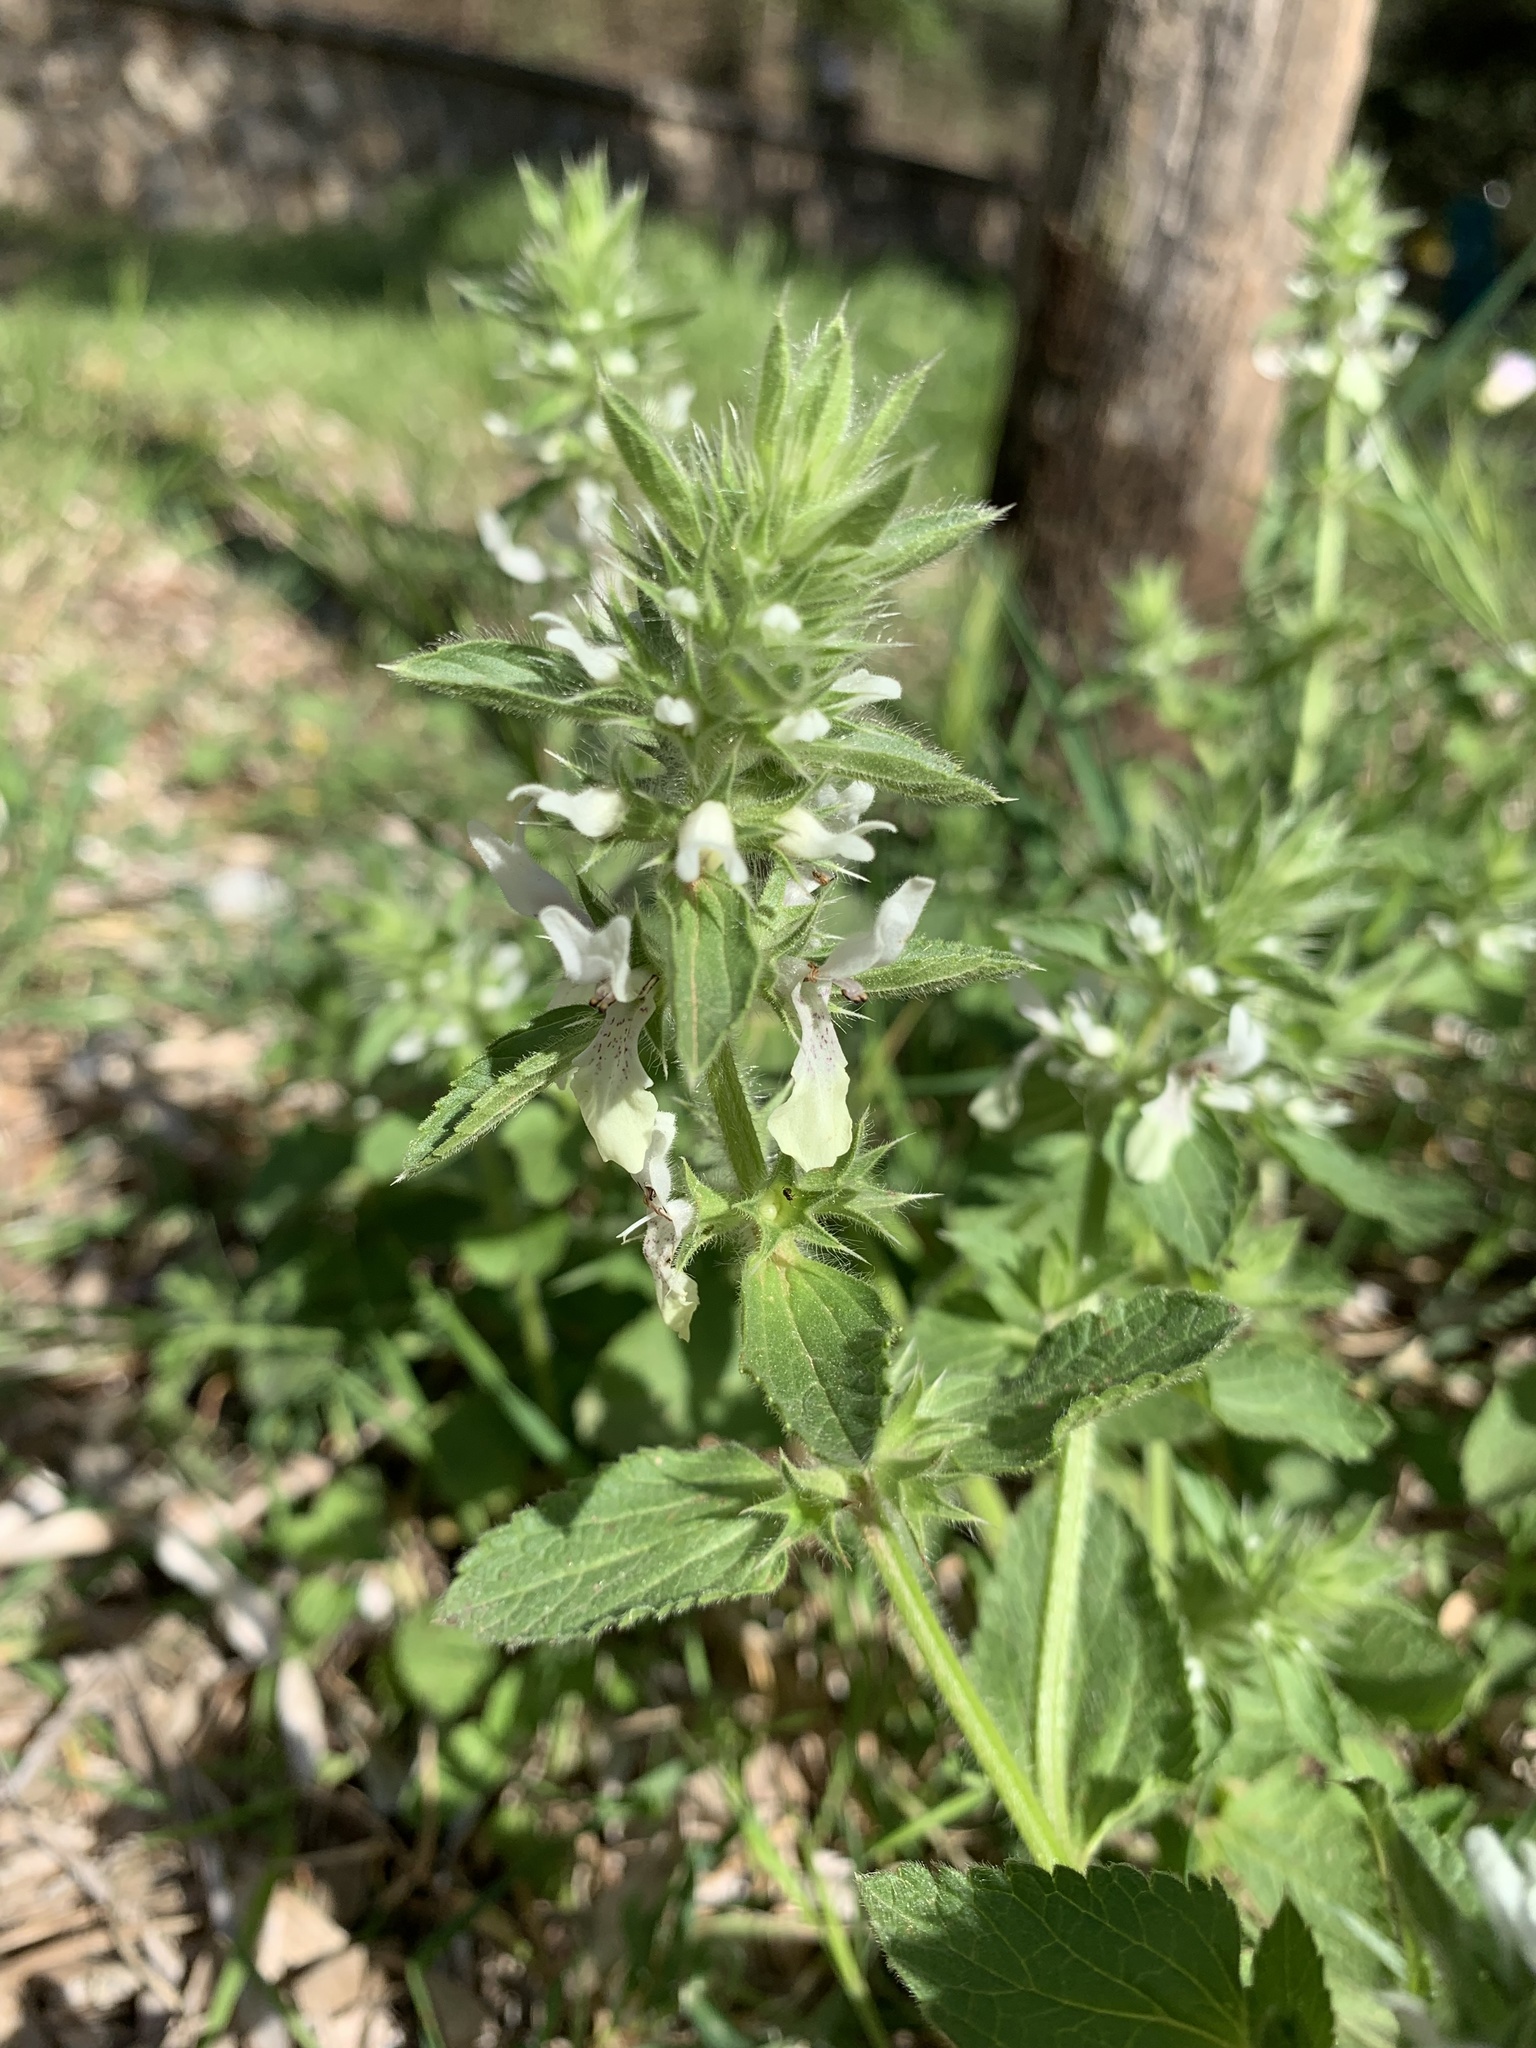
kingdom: Plantae
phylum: Tracheophyta
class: Magnoliopsida
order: Lamiales
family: Lamiaceae
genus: Stachys
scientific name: Stachys ocymastrum
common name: Italian hedgenettle
